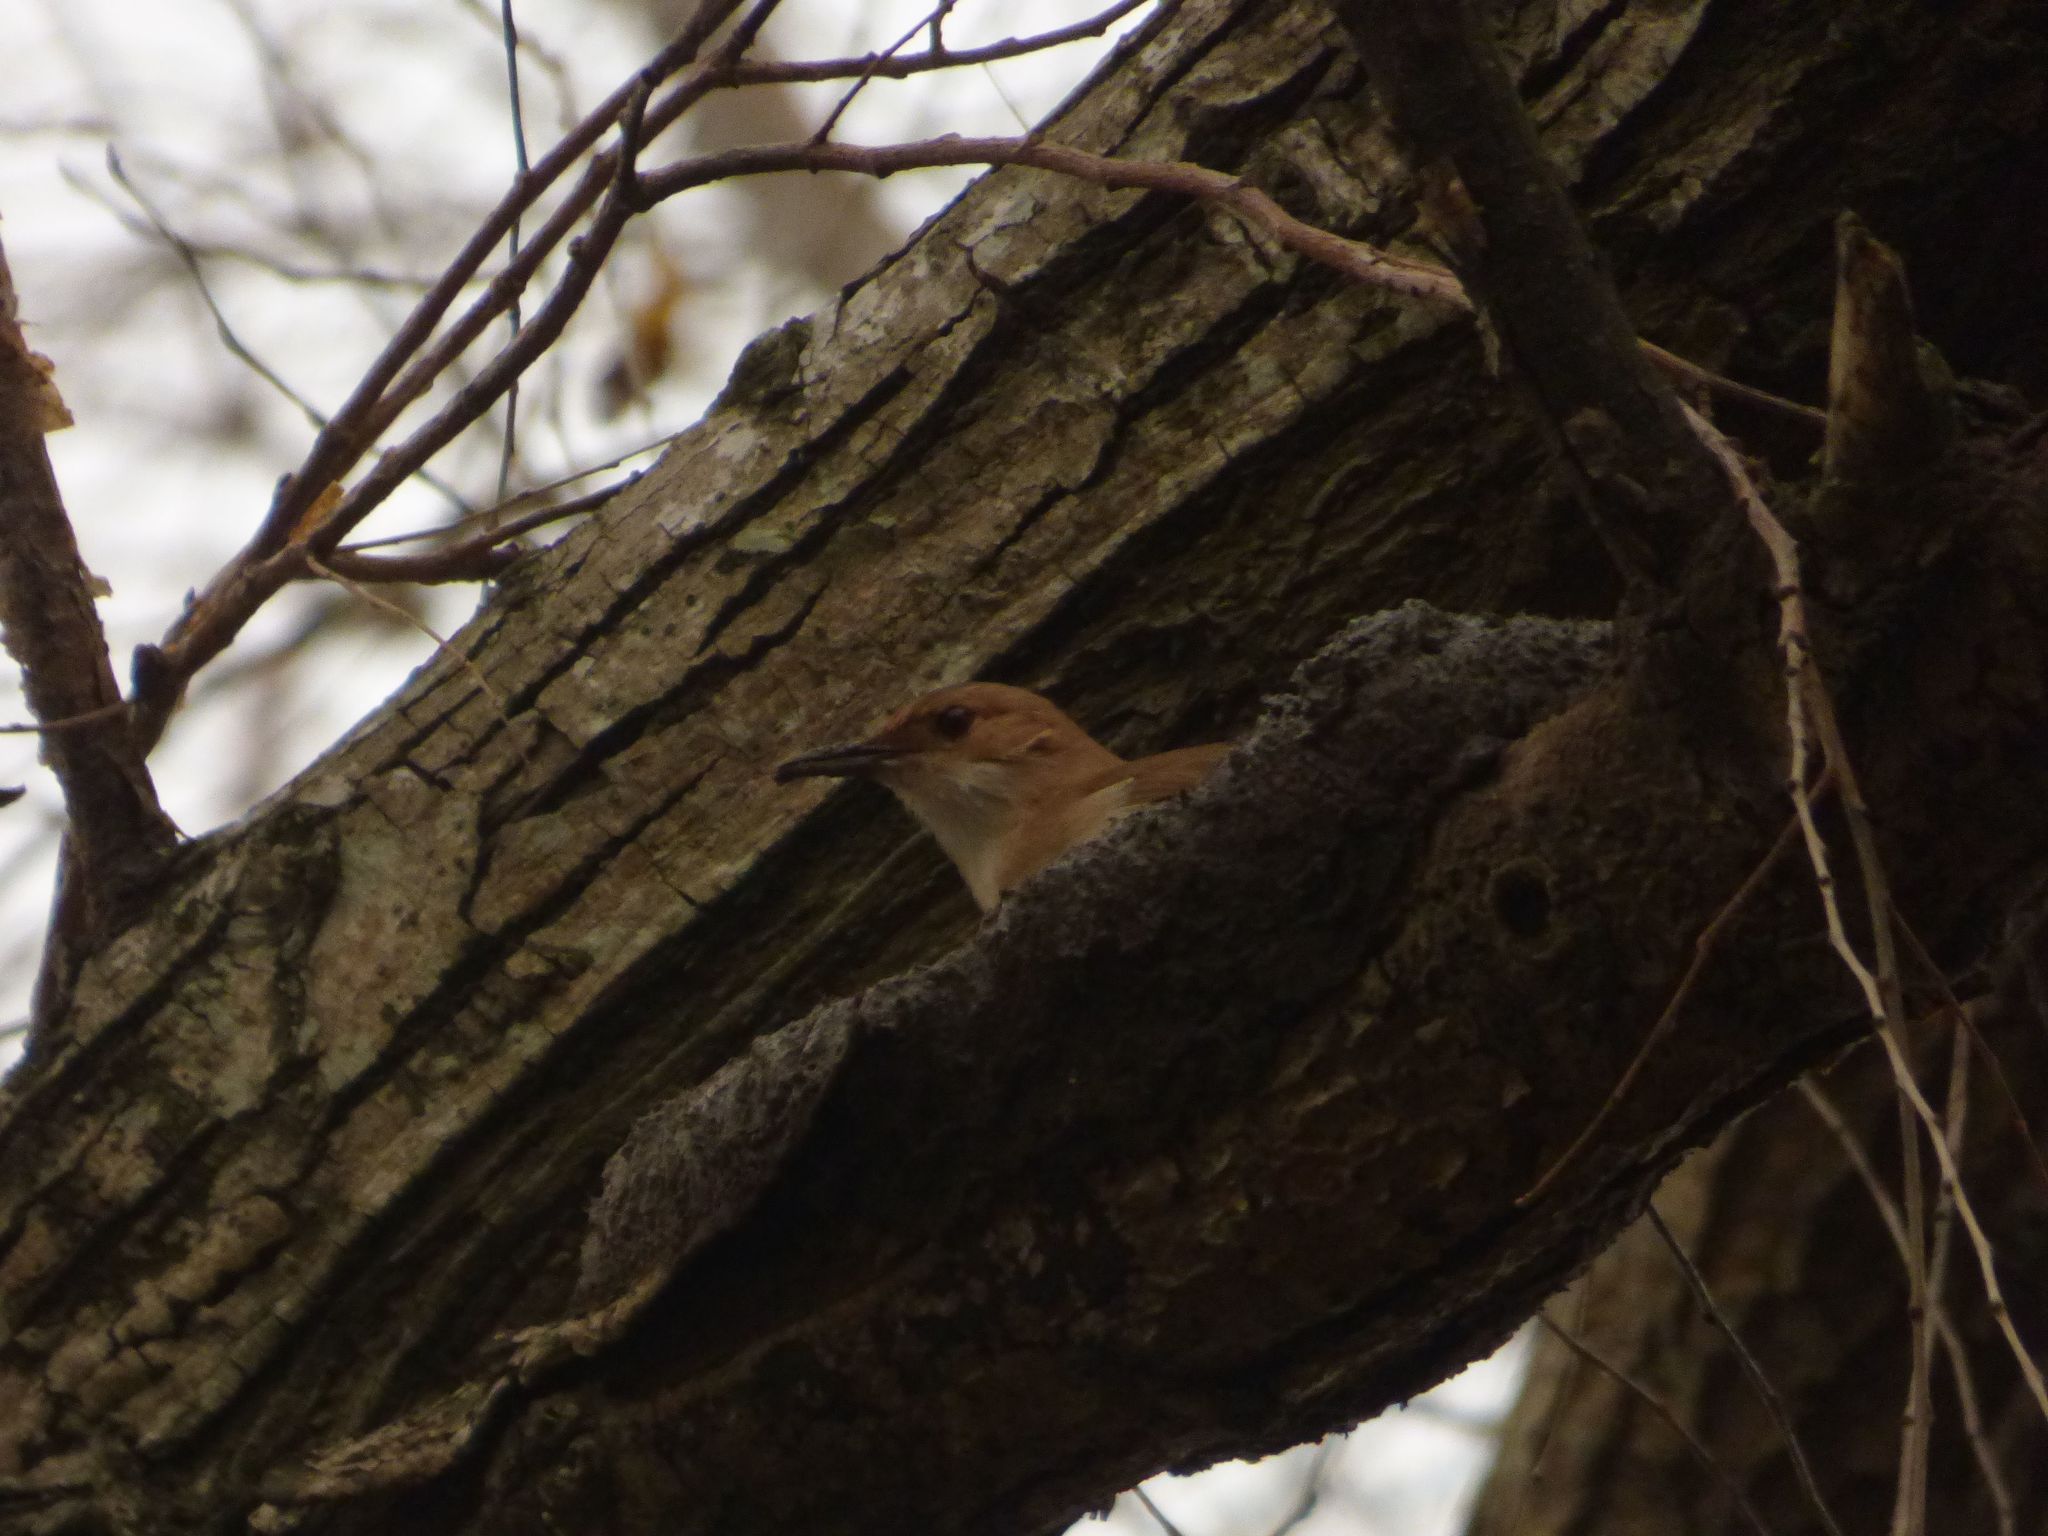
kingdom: Animalia
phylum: Chordata
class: Aves
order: Passeriformes
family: Furnariidae
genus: Furnarius
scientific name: Furnarius rufus
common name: Rufous hornero
